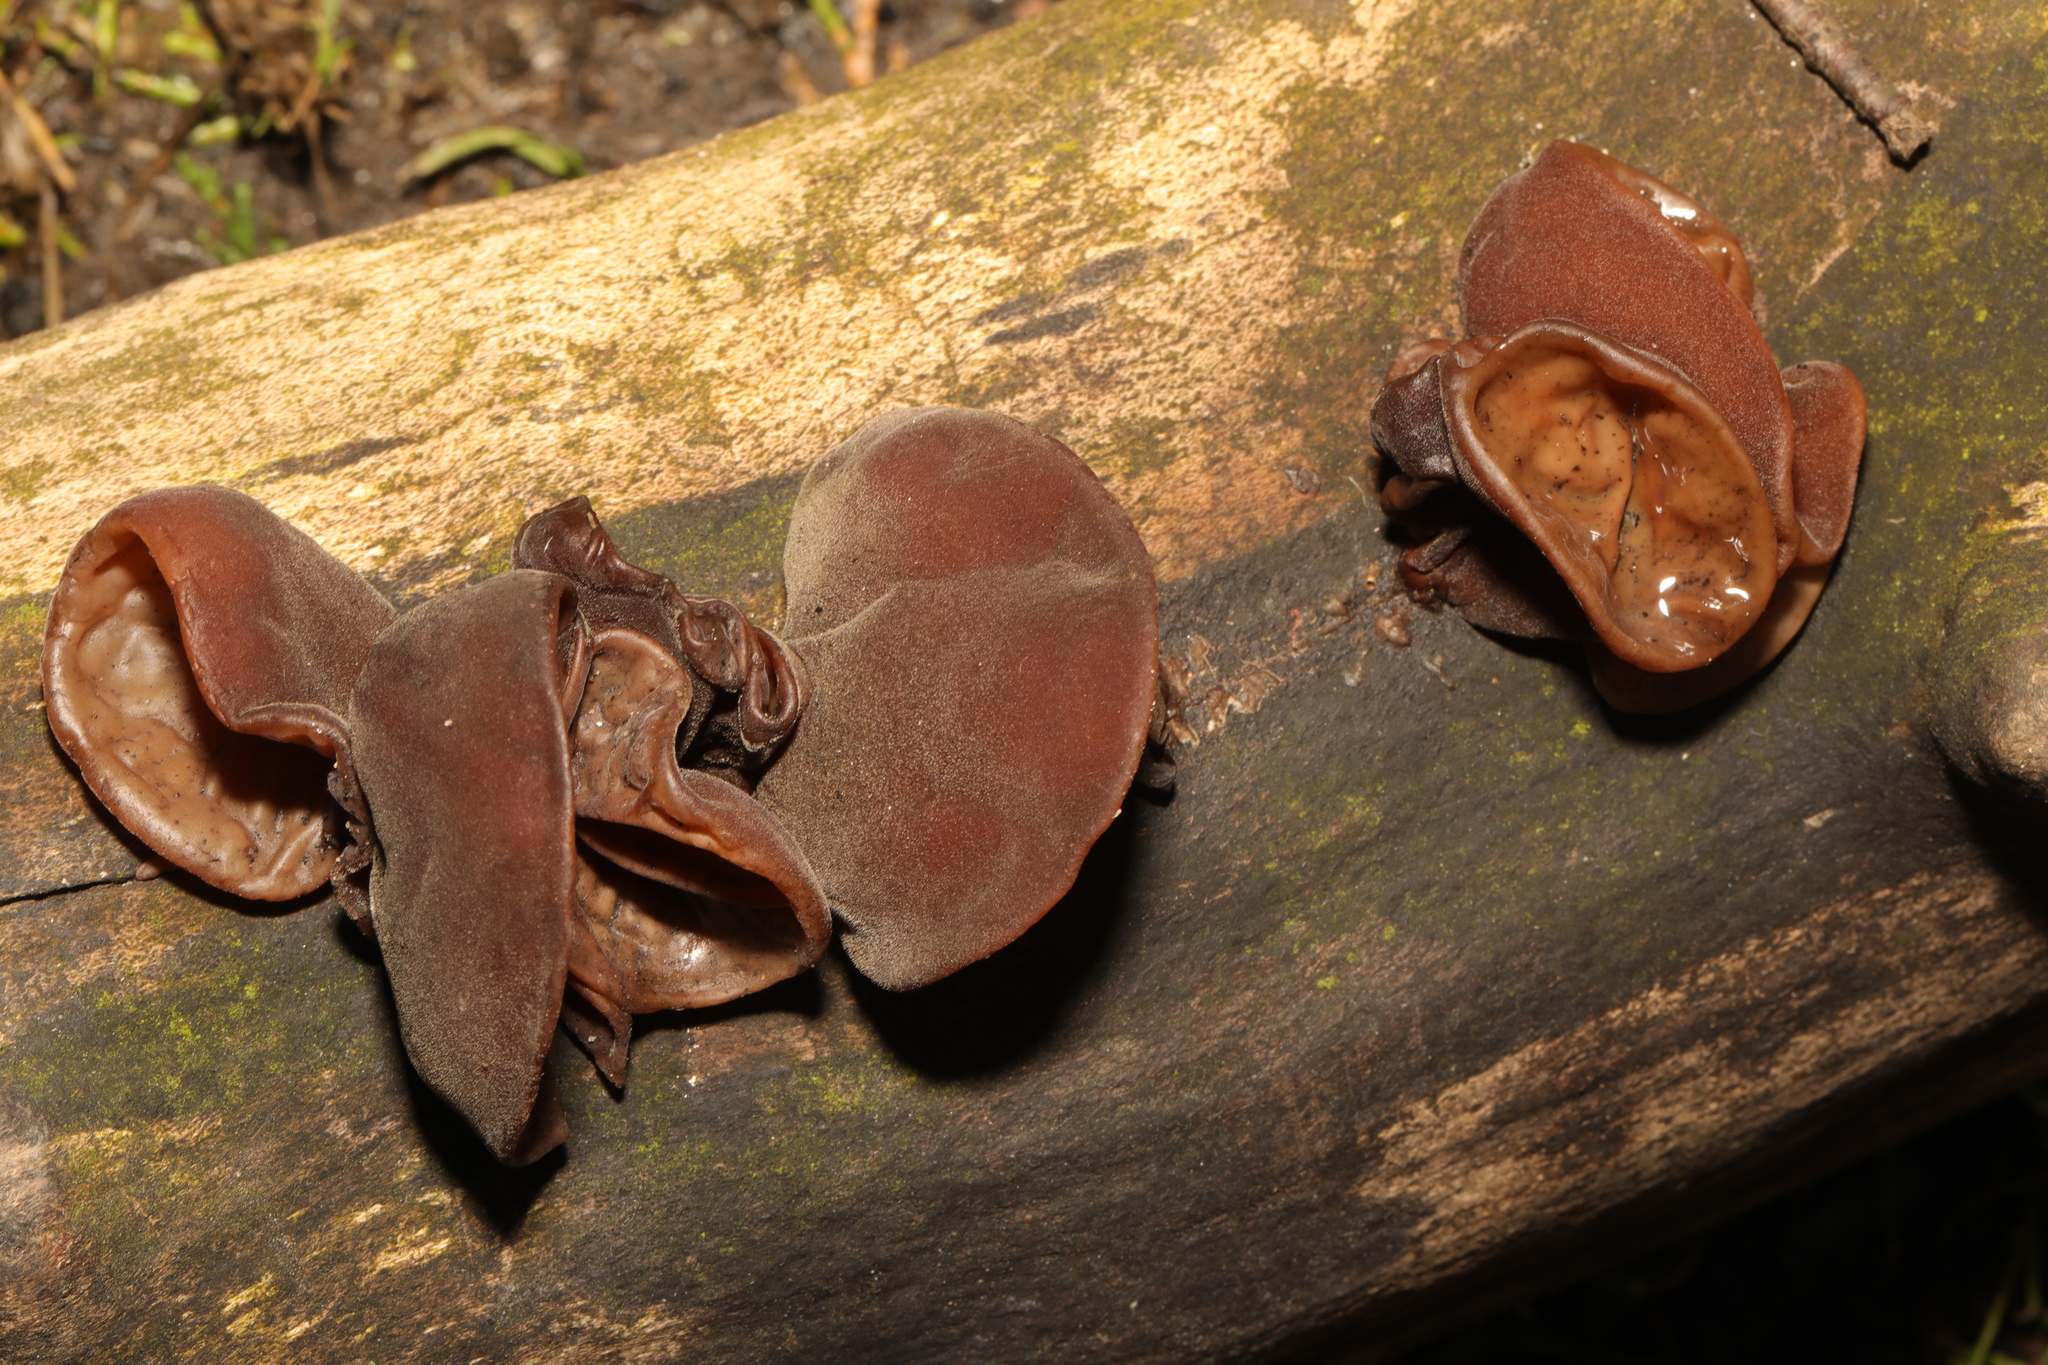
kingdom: Fungi
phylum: Basidiomycota
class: Agaricomycetes
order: Auriculariales
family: Auriculariaceae
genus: Auricularia
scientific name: Auricularia auricula-judae
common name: Jelly ear
